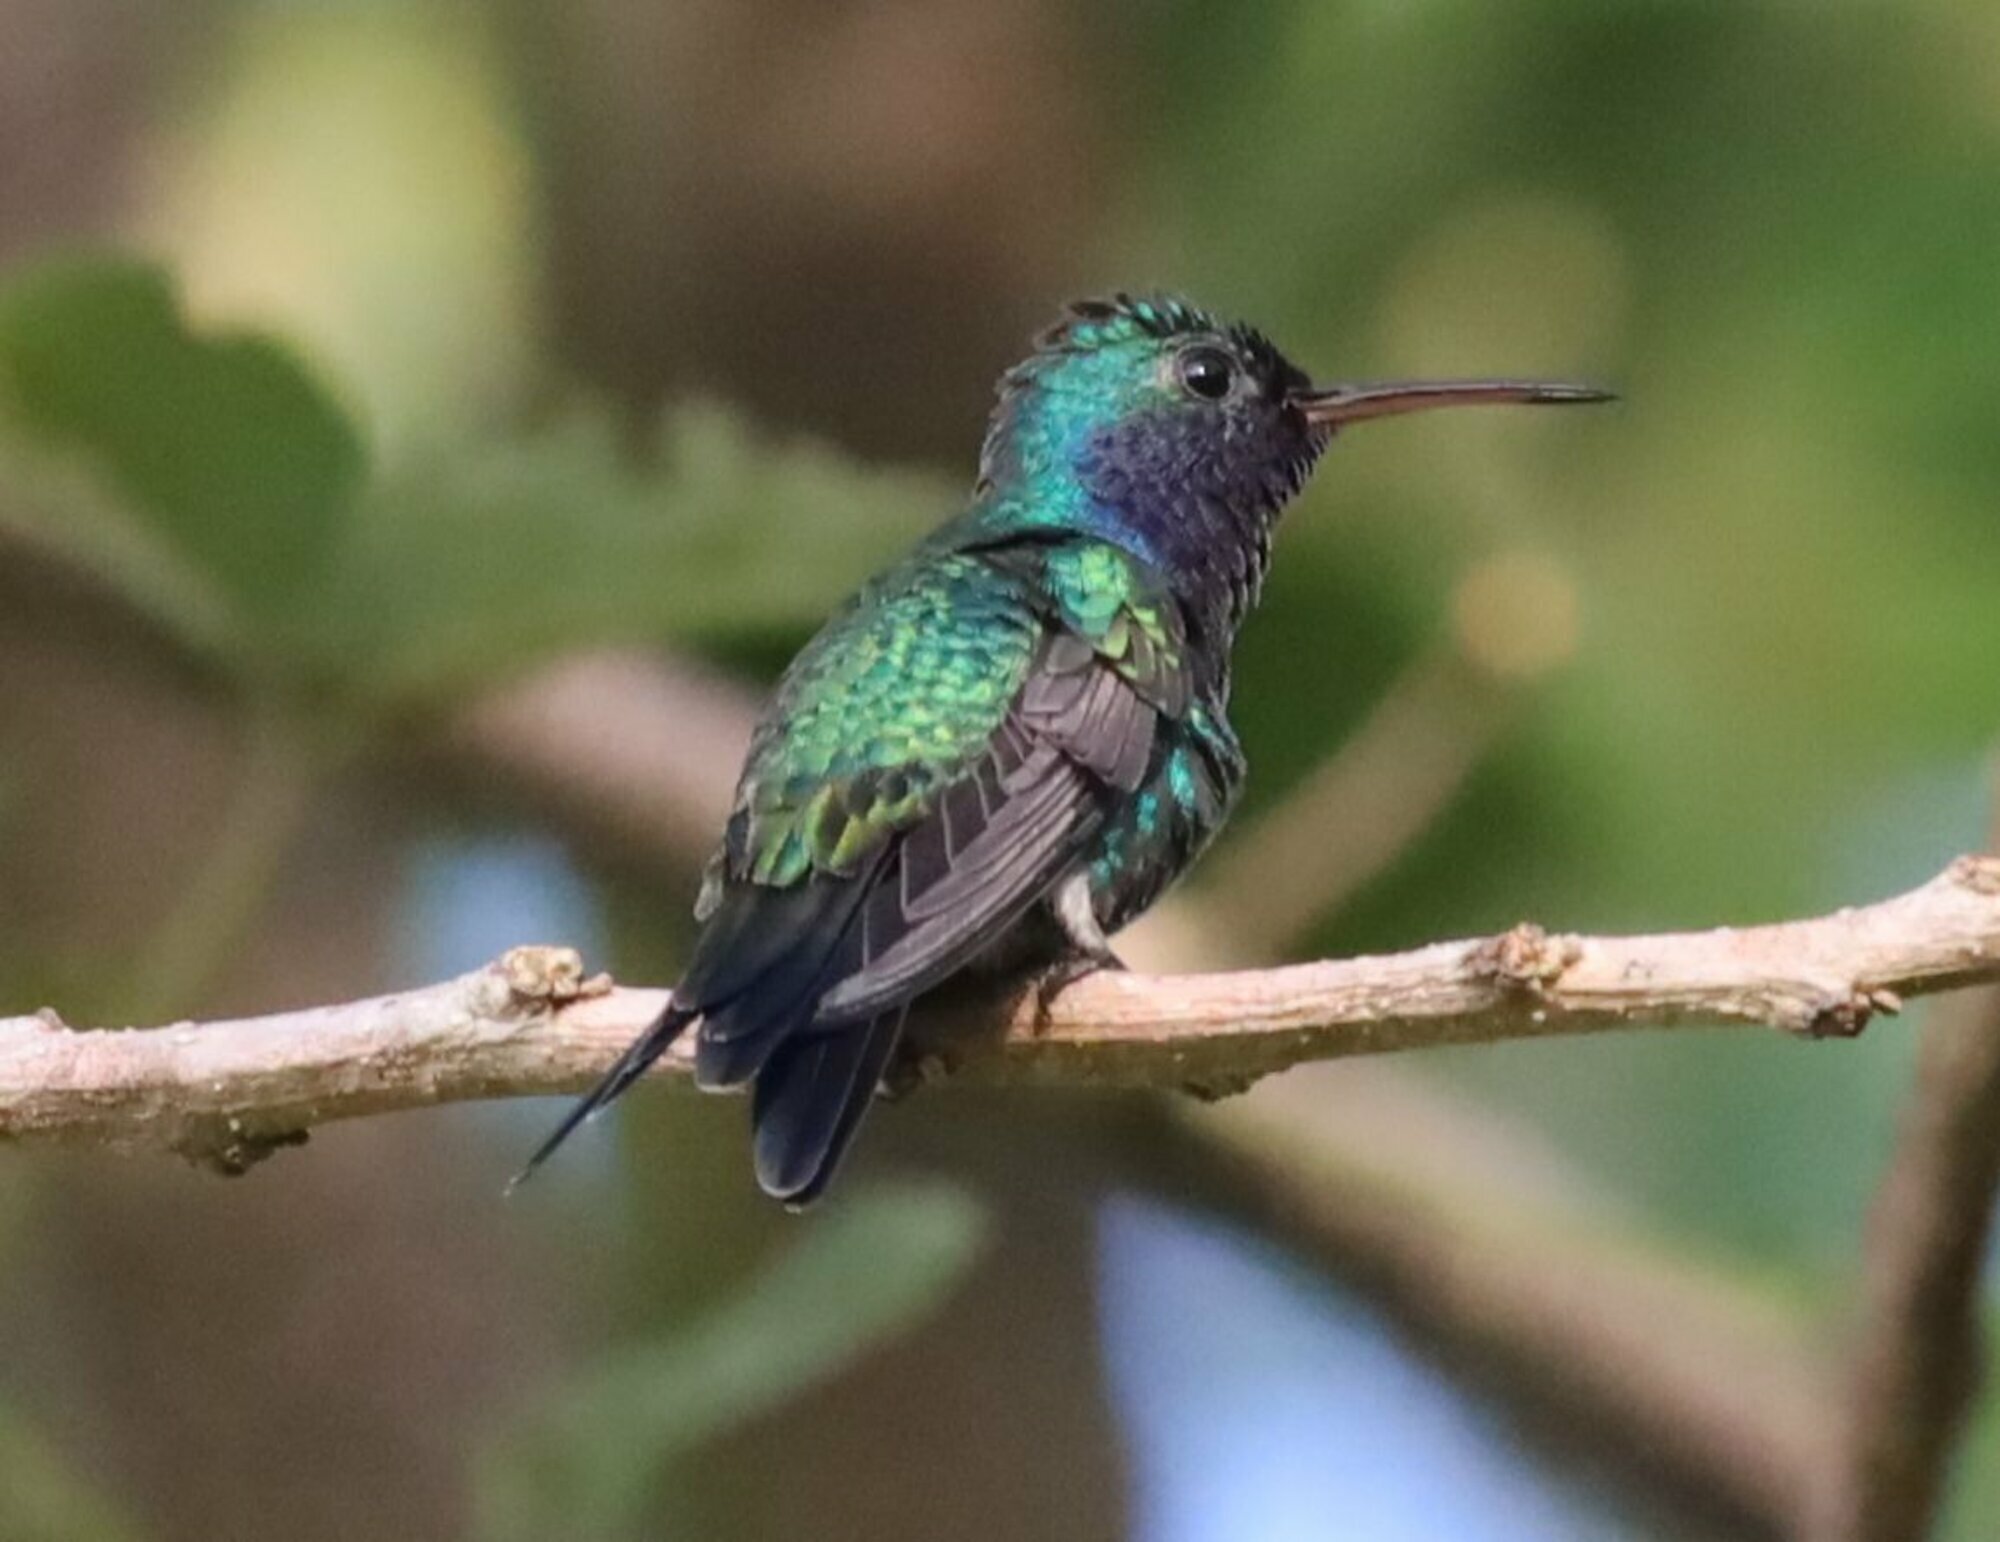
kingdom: Animalia
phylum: Chordata
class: Aves
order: Apodiformes
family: Trochilidae
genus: Chrysuronia
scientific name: Chrysuronia coeruleogularis
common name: Sapphire-throated hummingbird
